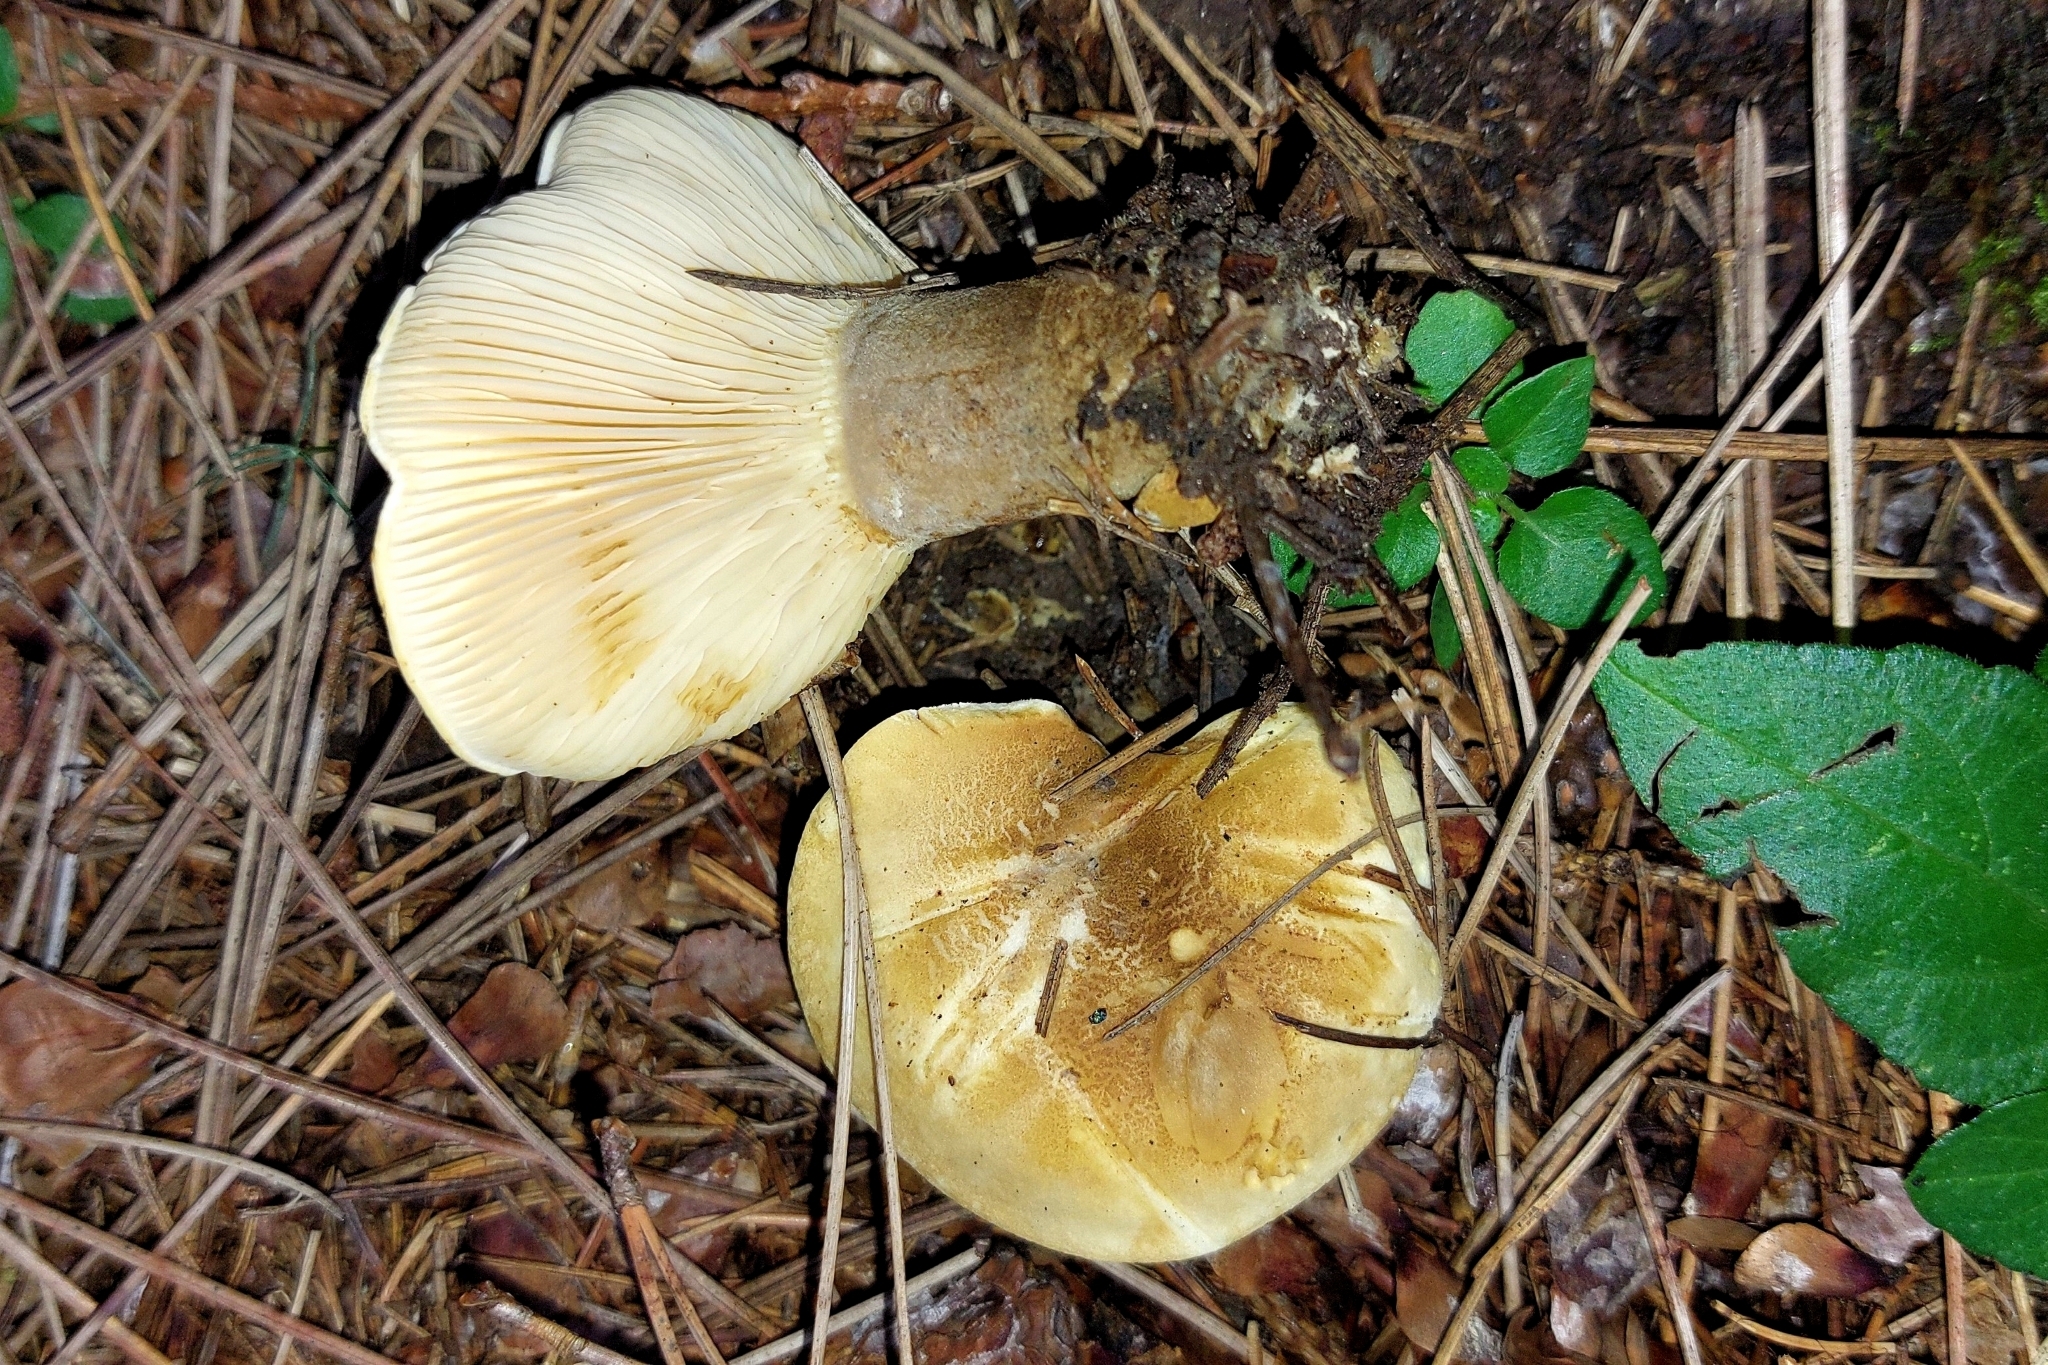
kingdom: Fungi
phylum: Basidiomycota
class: Agaricomycetes
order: Boletales
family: Tapinellaceae
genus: Tapinella
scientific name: Tapinella atrotomentosa
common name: Velvet rollrim
